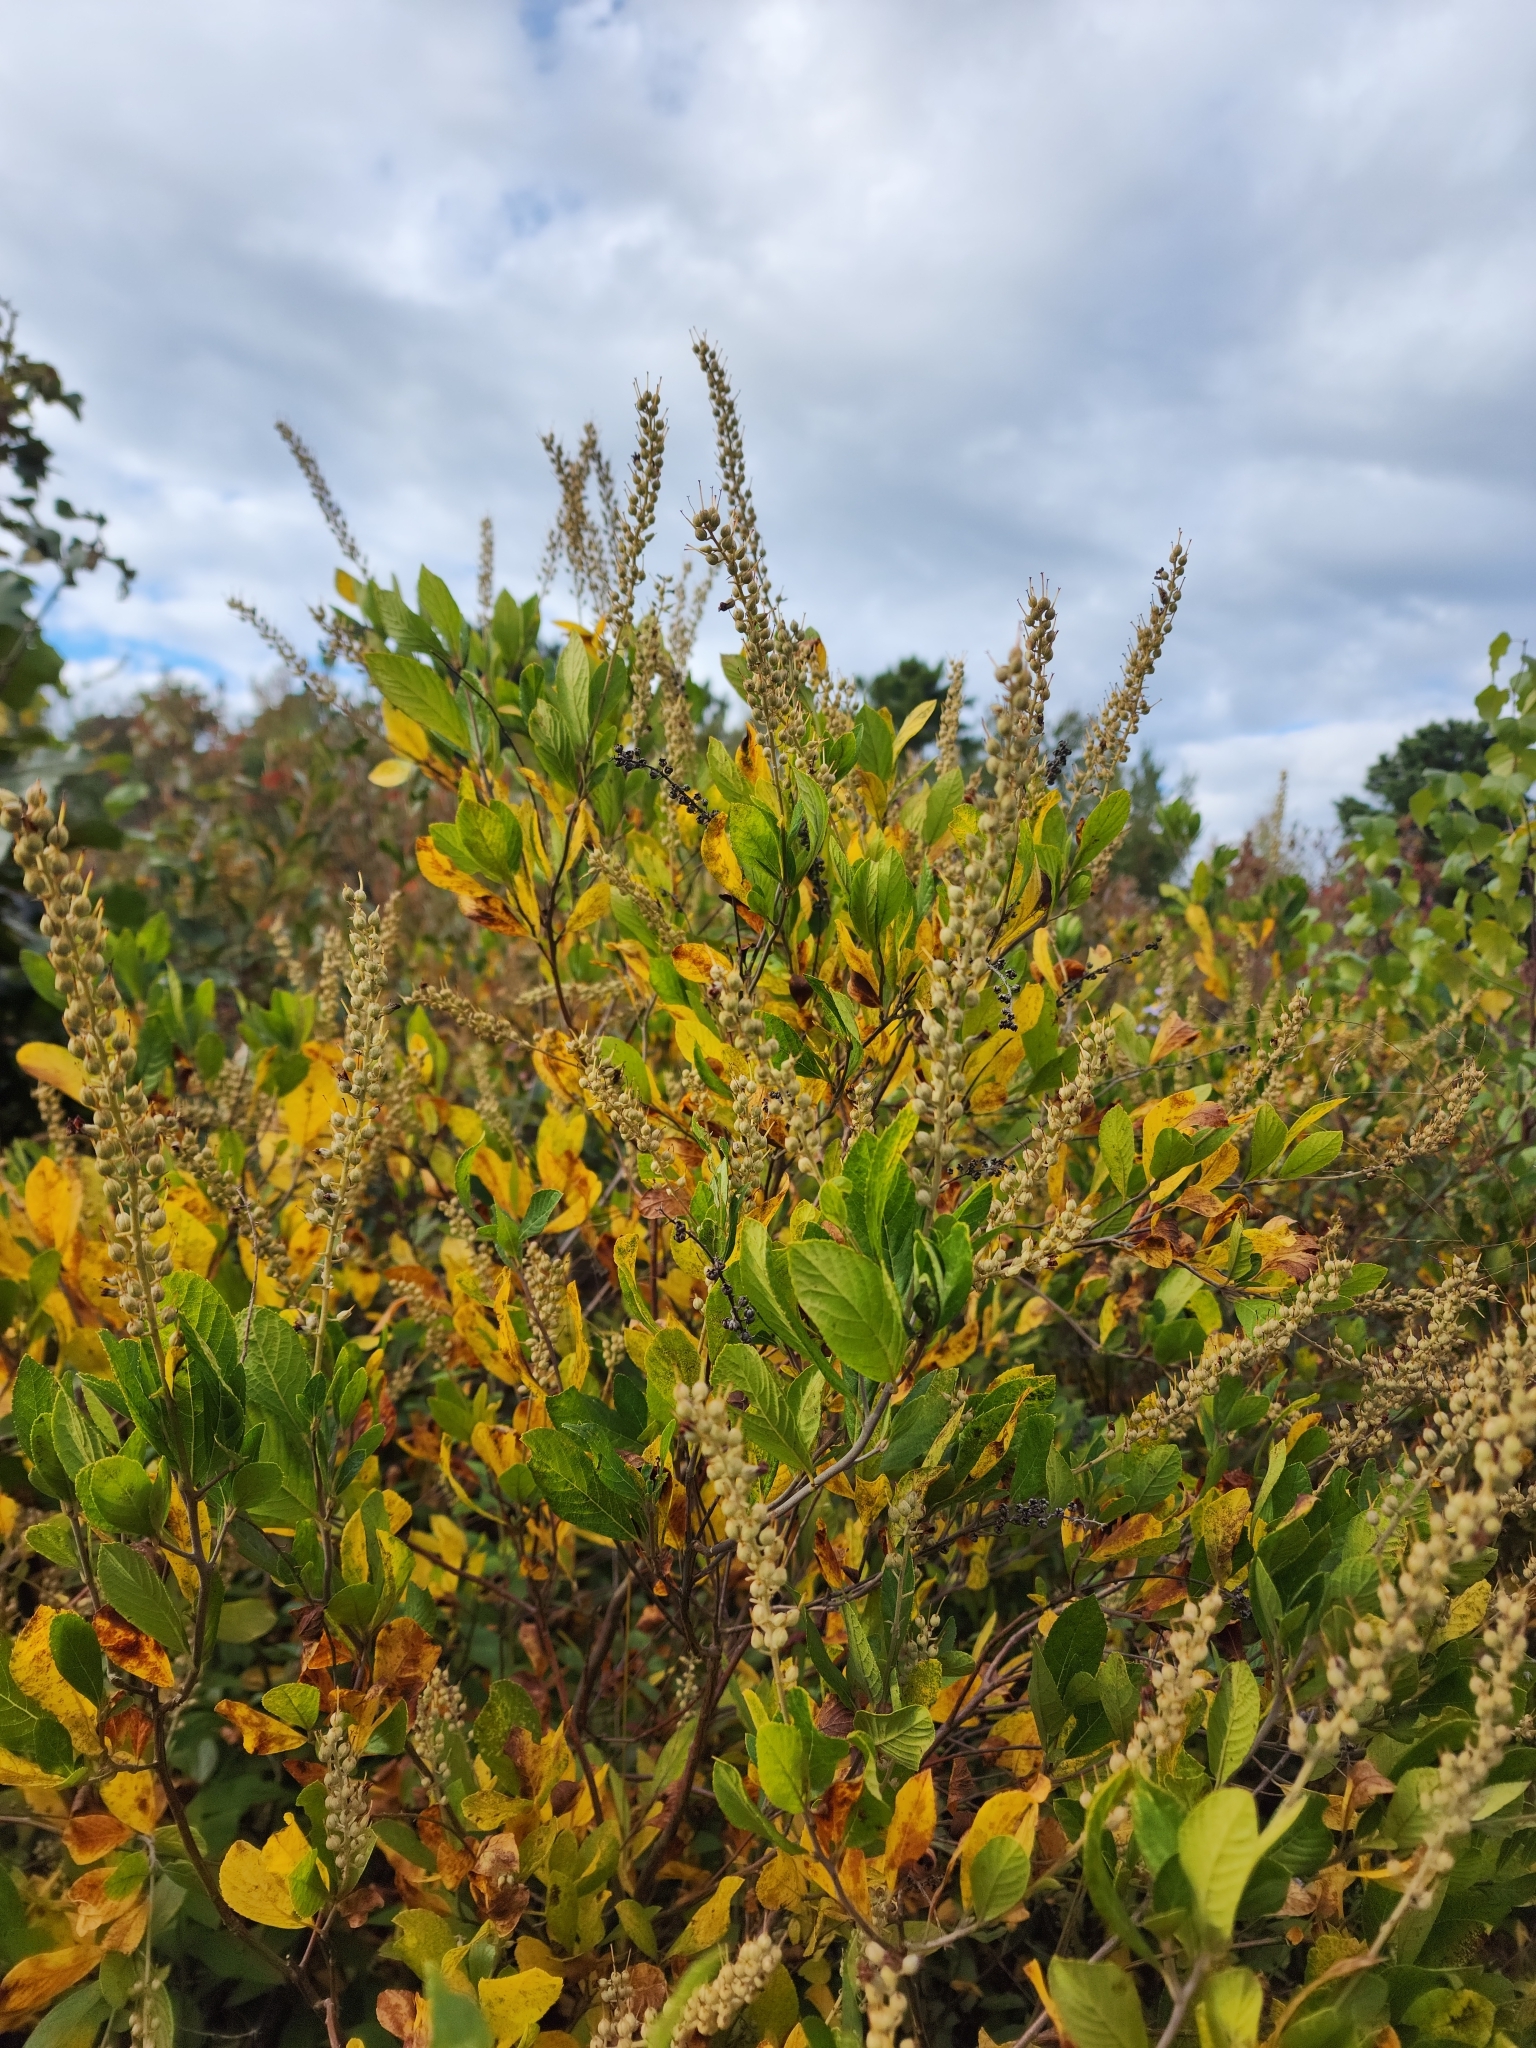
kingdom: Plantae
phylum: Tracheophyta
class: Magnoliopsida
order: Ericales
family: Clethraceae
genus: Clethra
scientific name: Clethra alnifolia
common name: Sweet pepperbush
